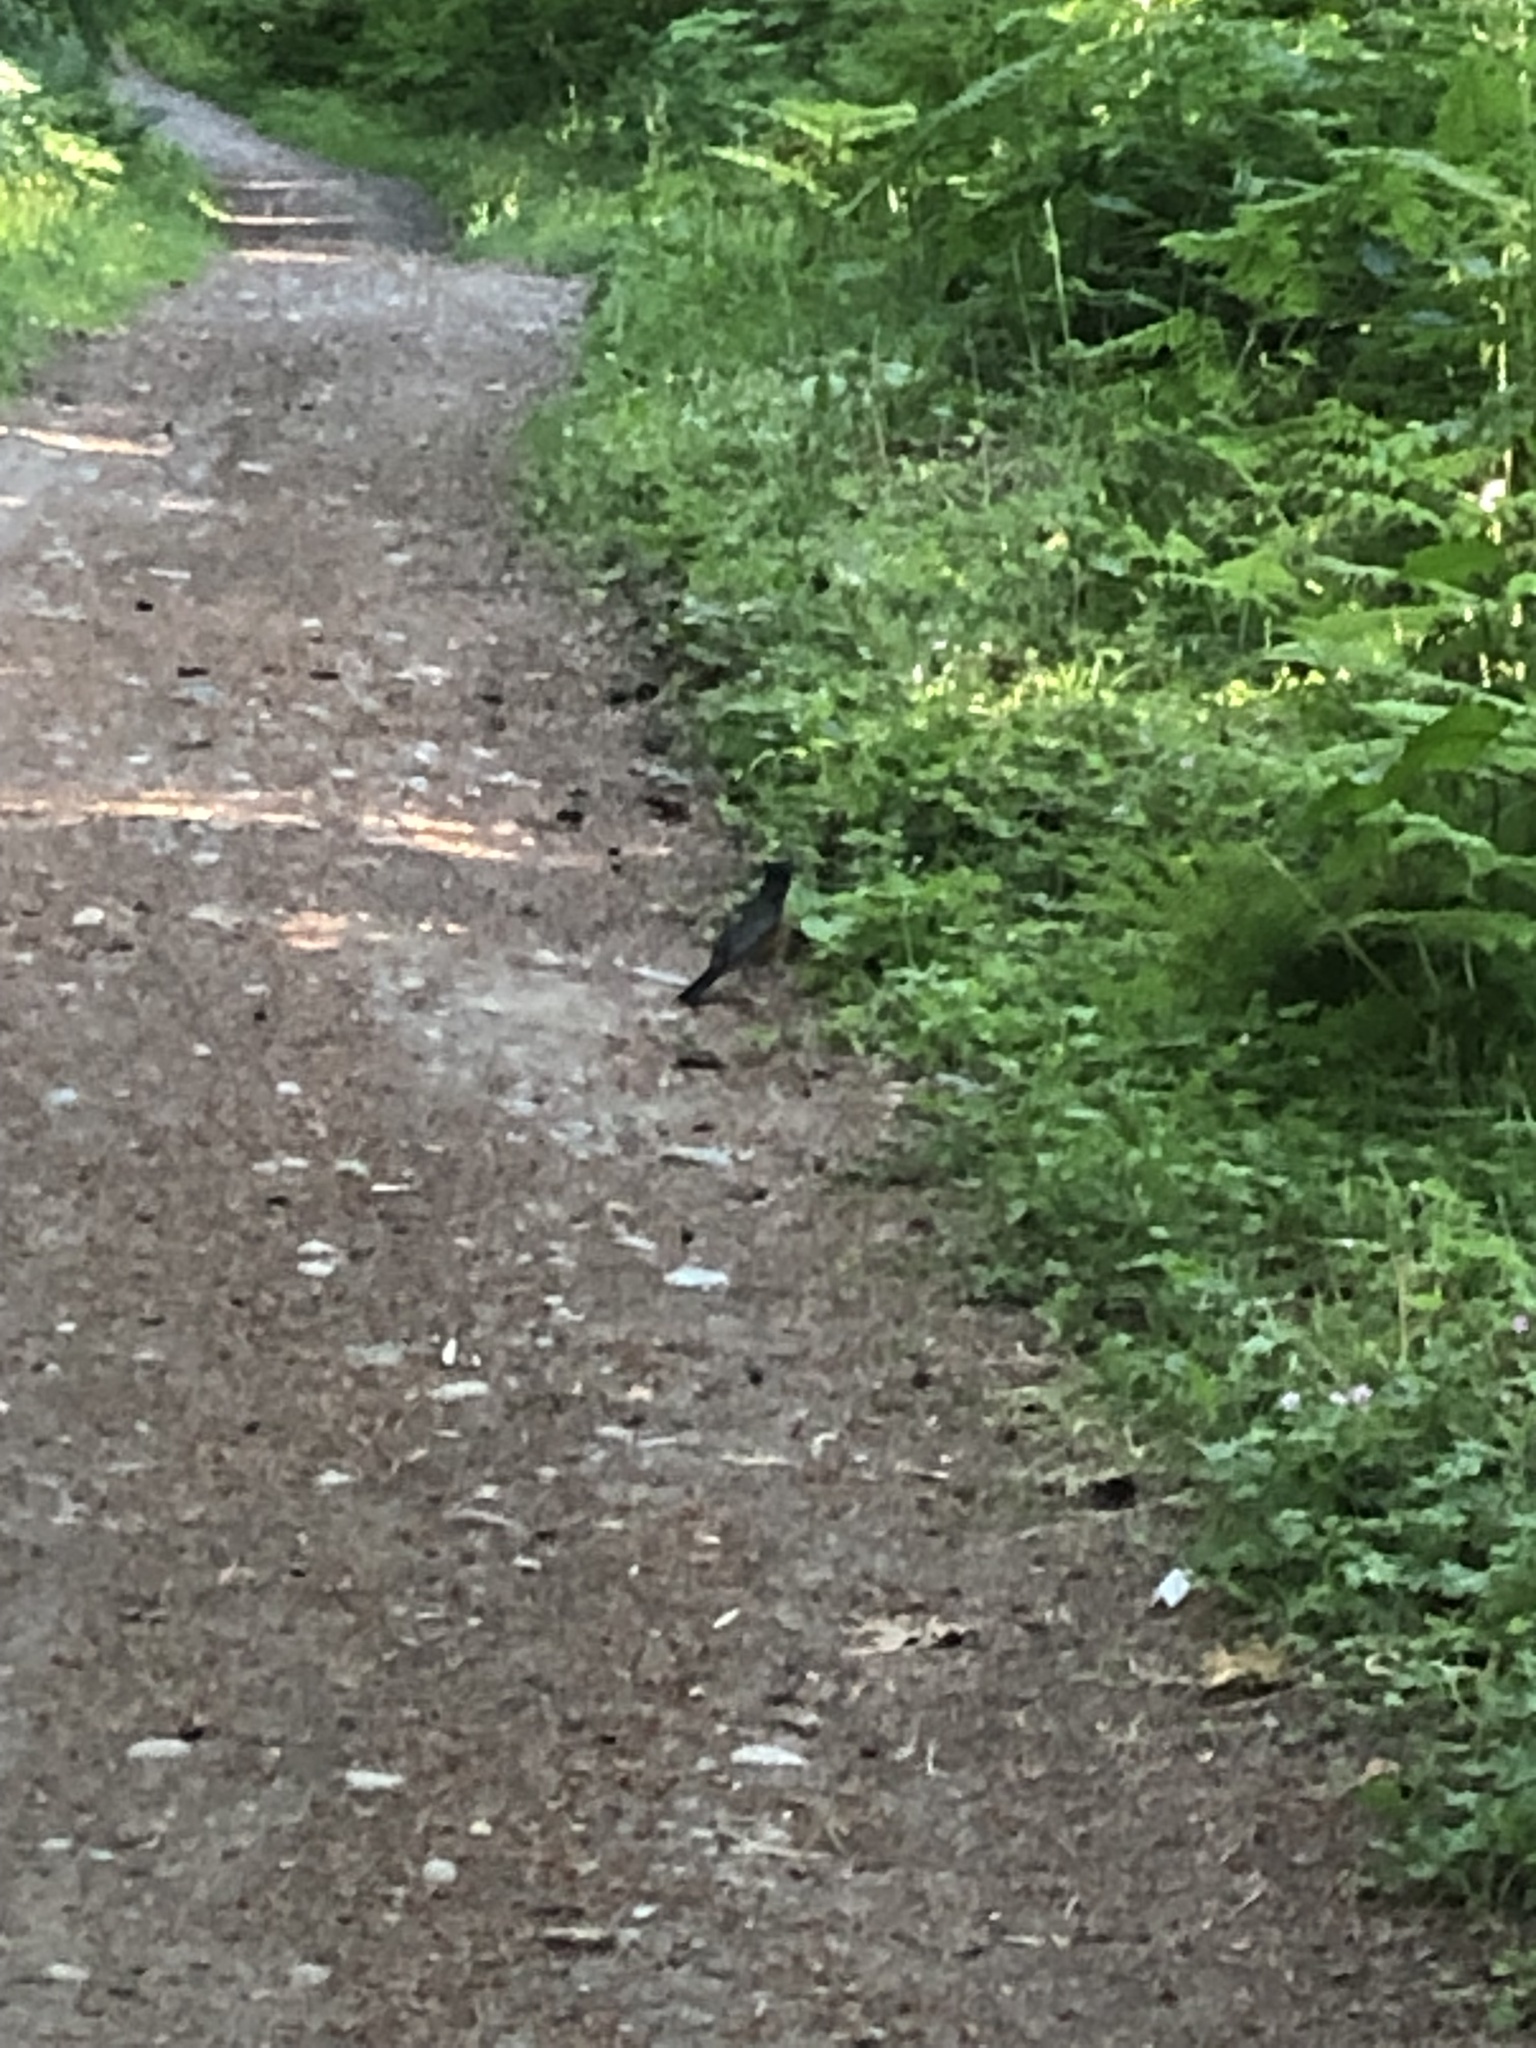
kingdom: Animalia
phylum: Chordata
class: Aves
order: Passeriformes
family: Turdidae
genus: Turdus
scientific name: Turdus migratorius
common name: American robin
